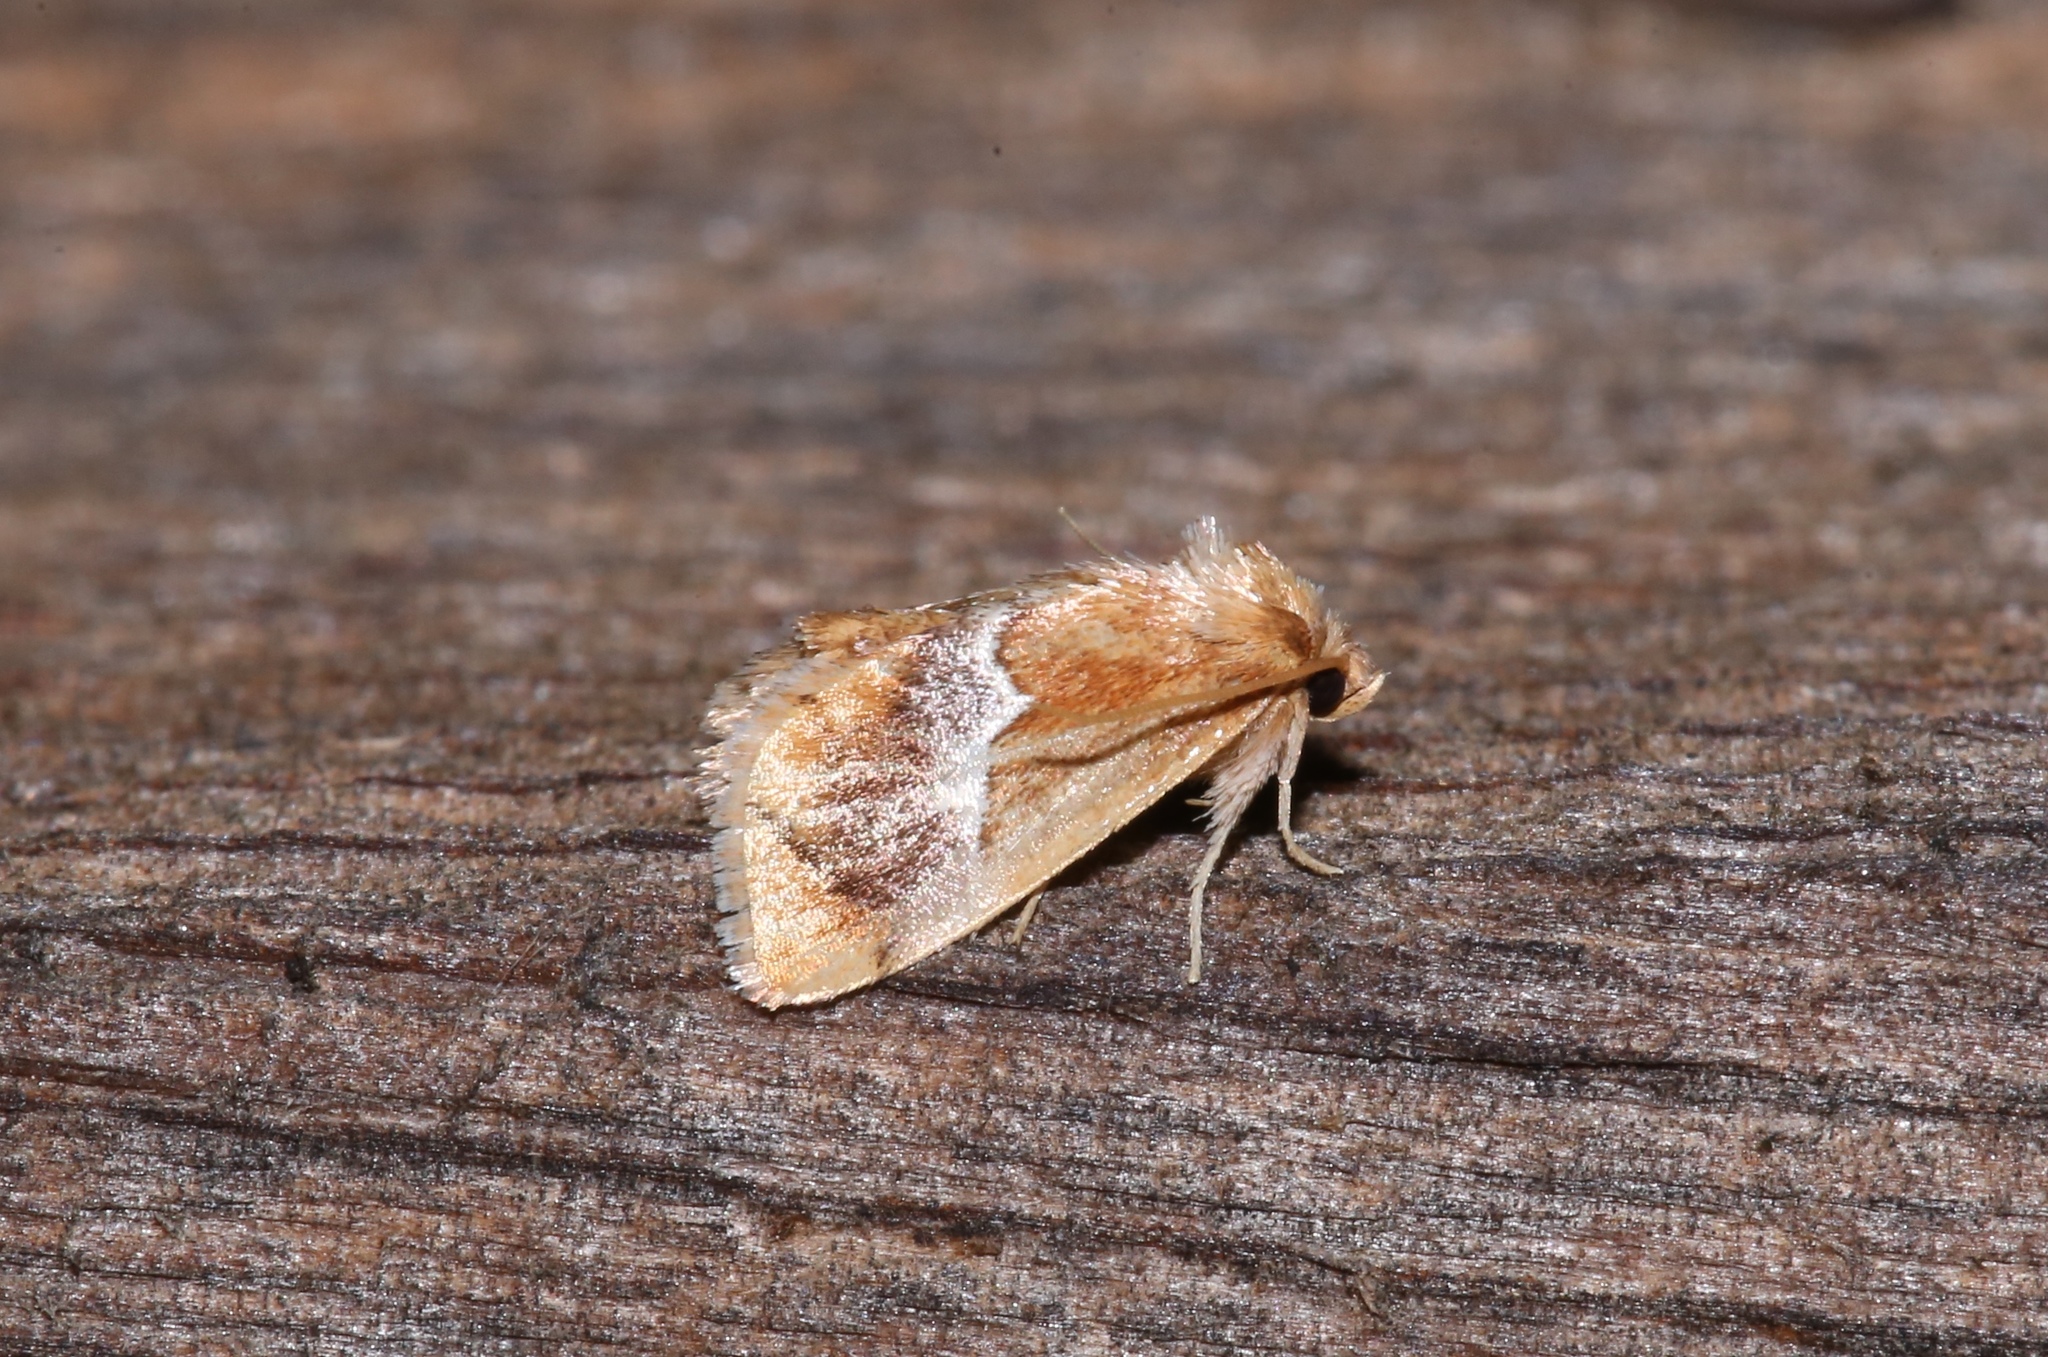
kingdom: Animalia
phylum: Arthropoda
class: Insecta
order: Lepidoptera
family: Limacodidae
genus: Lithacodes
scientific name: Lithacodes fasciola
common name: Yellow-shouldered slug moth
